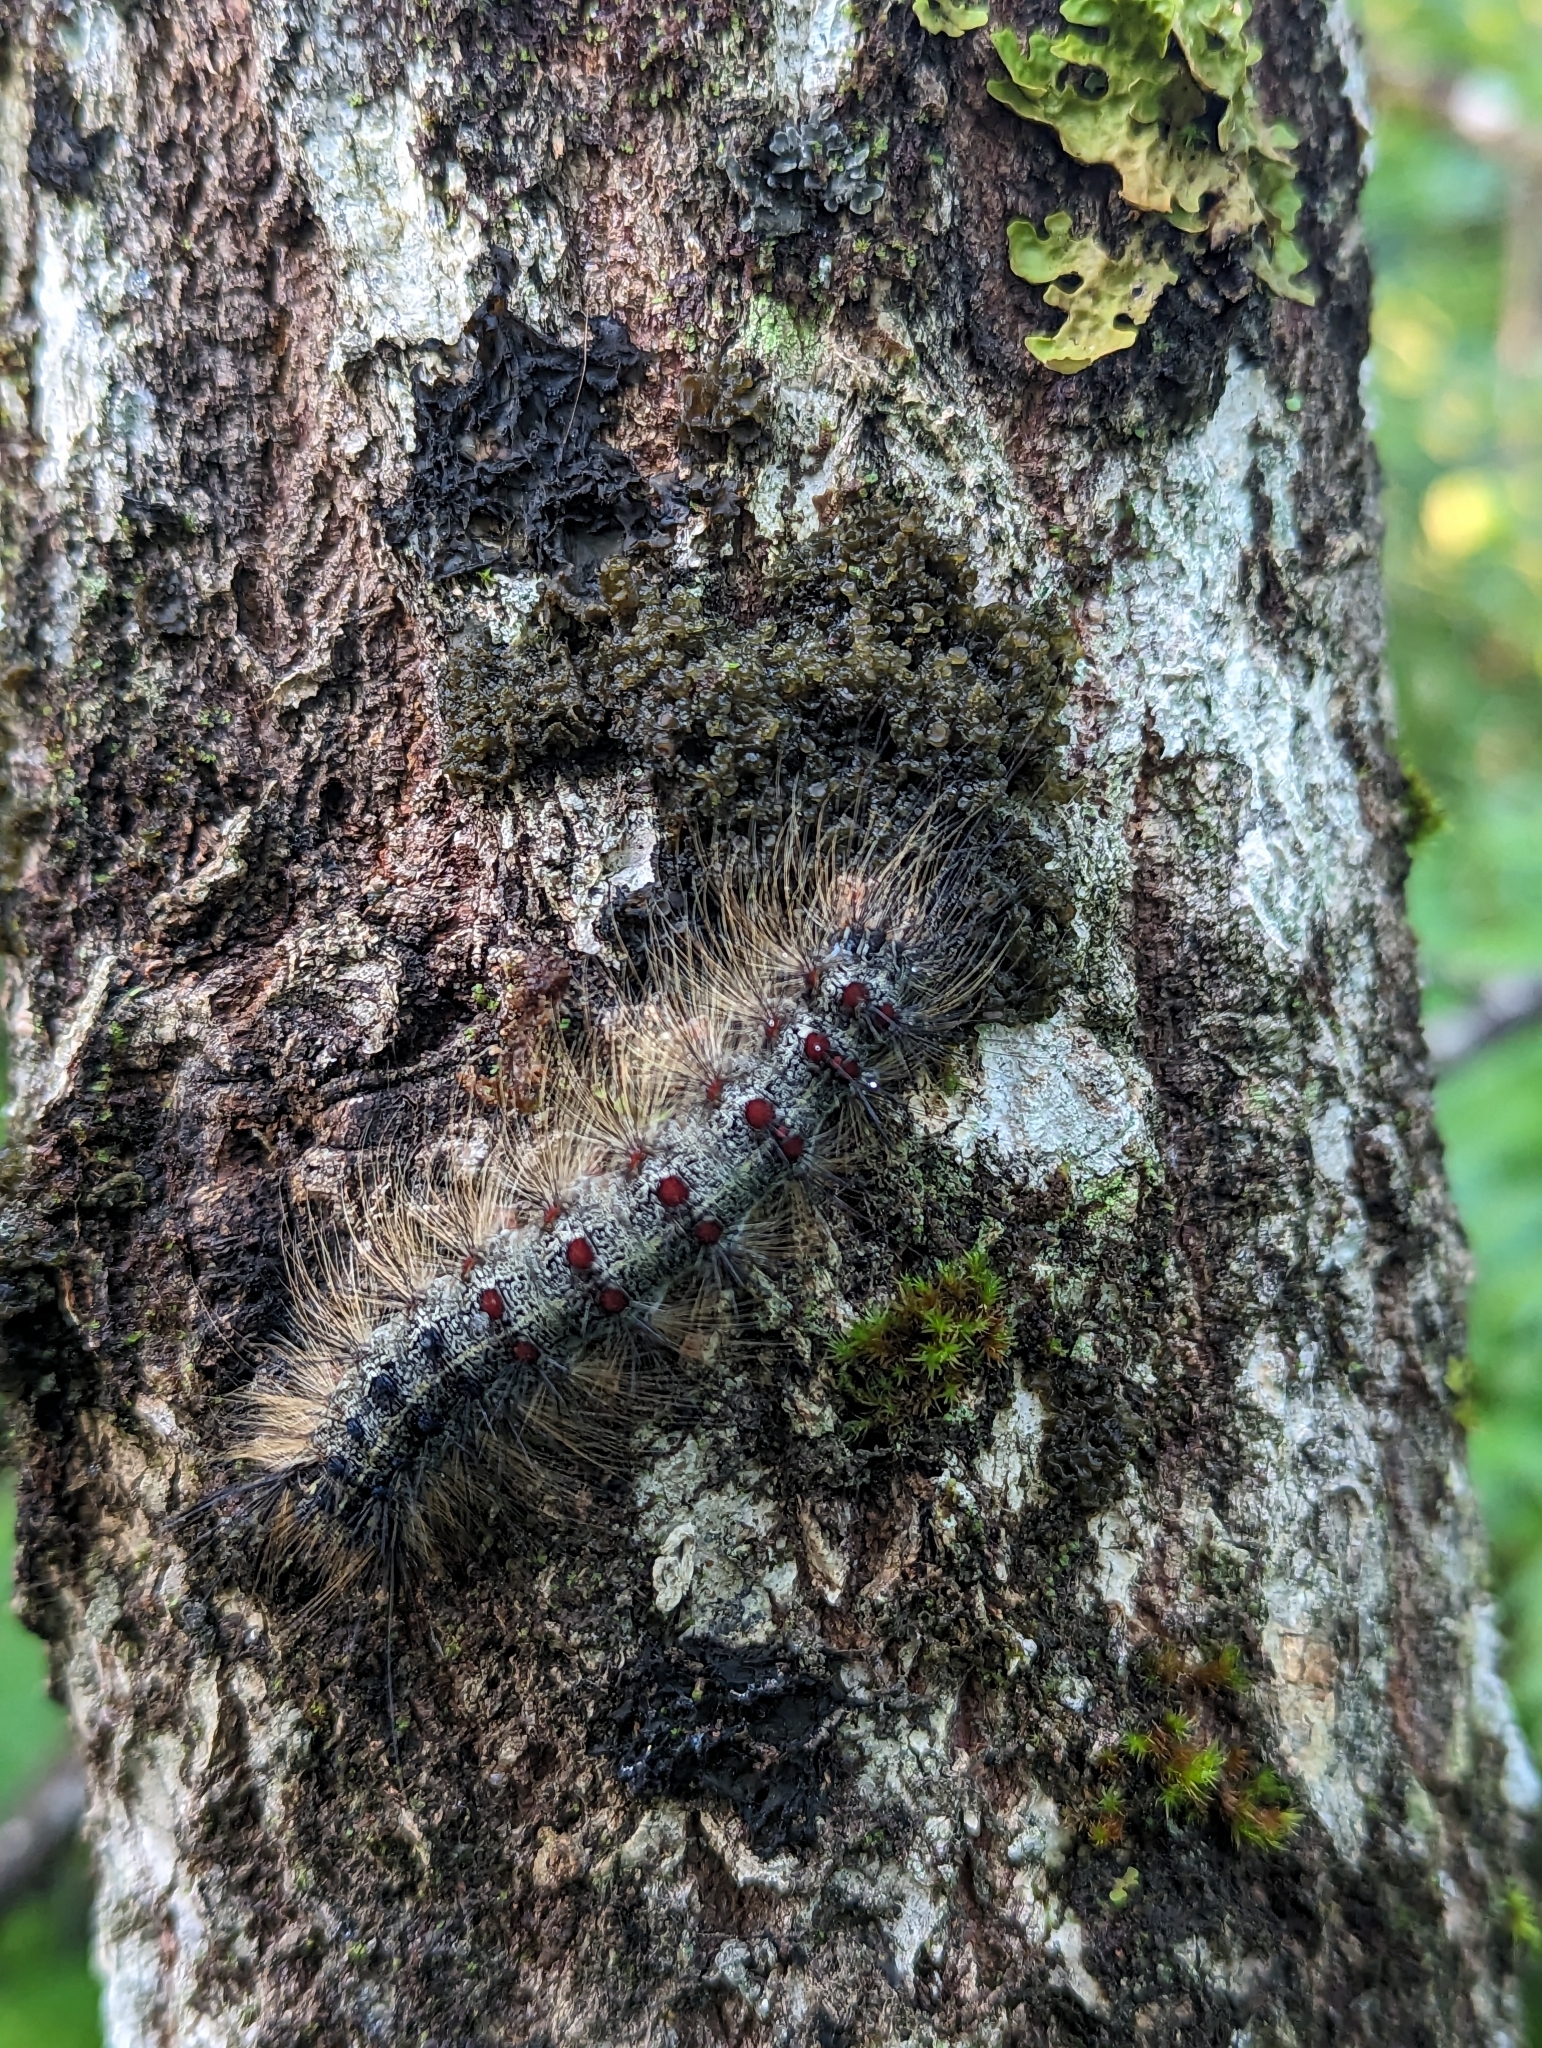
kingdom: Animalia
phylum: Arthropoda
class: Insecta
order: Lepidoptera
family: Erebidae
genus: Lymantria
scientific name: Lymantria dispar
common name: Gypsy moth
